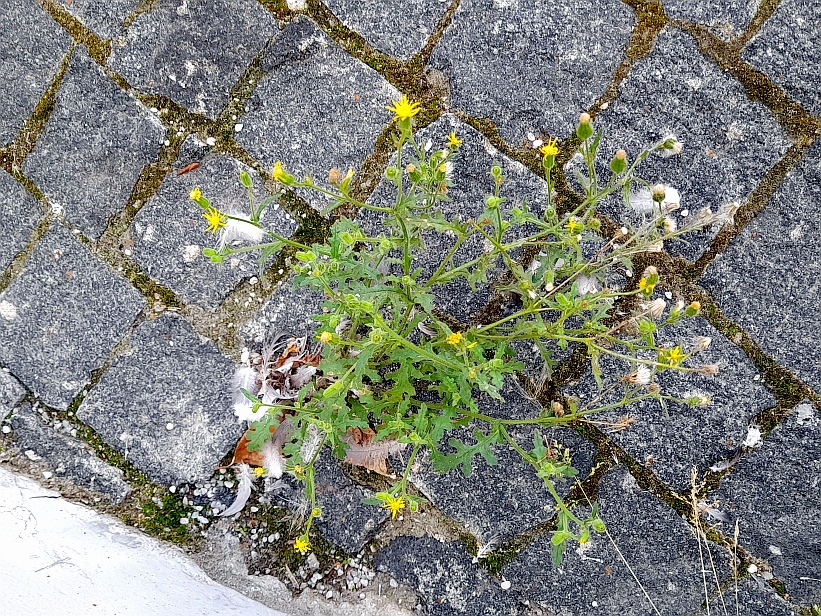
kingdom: Plantae
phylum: Tracheophyta
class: Magnoliopsida
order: Asterales
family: Asteraceae
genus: Senecio
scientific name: Senecio viscosus
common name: Sticky groundsel
